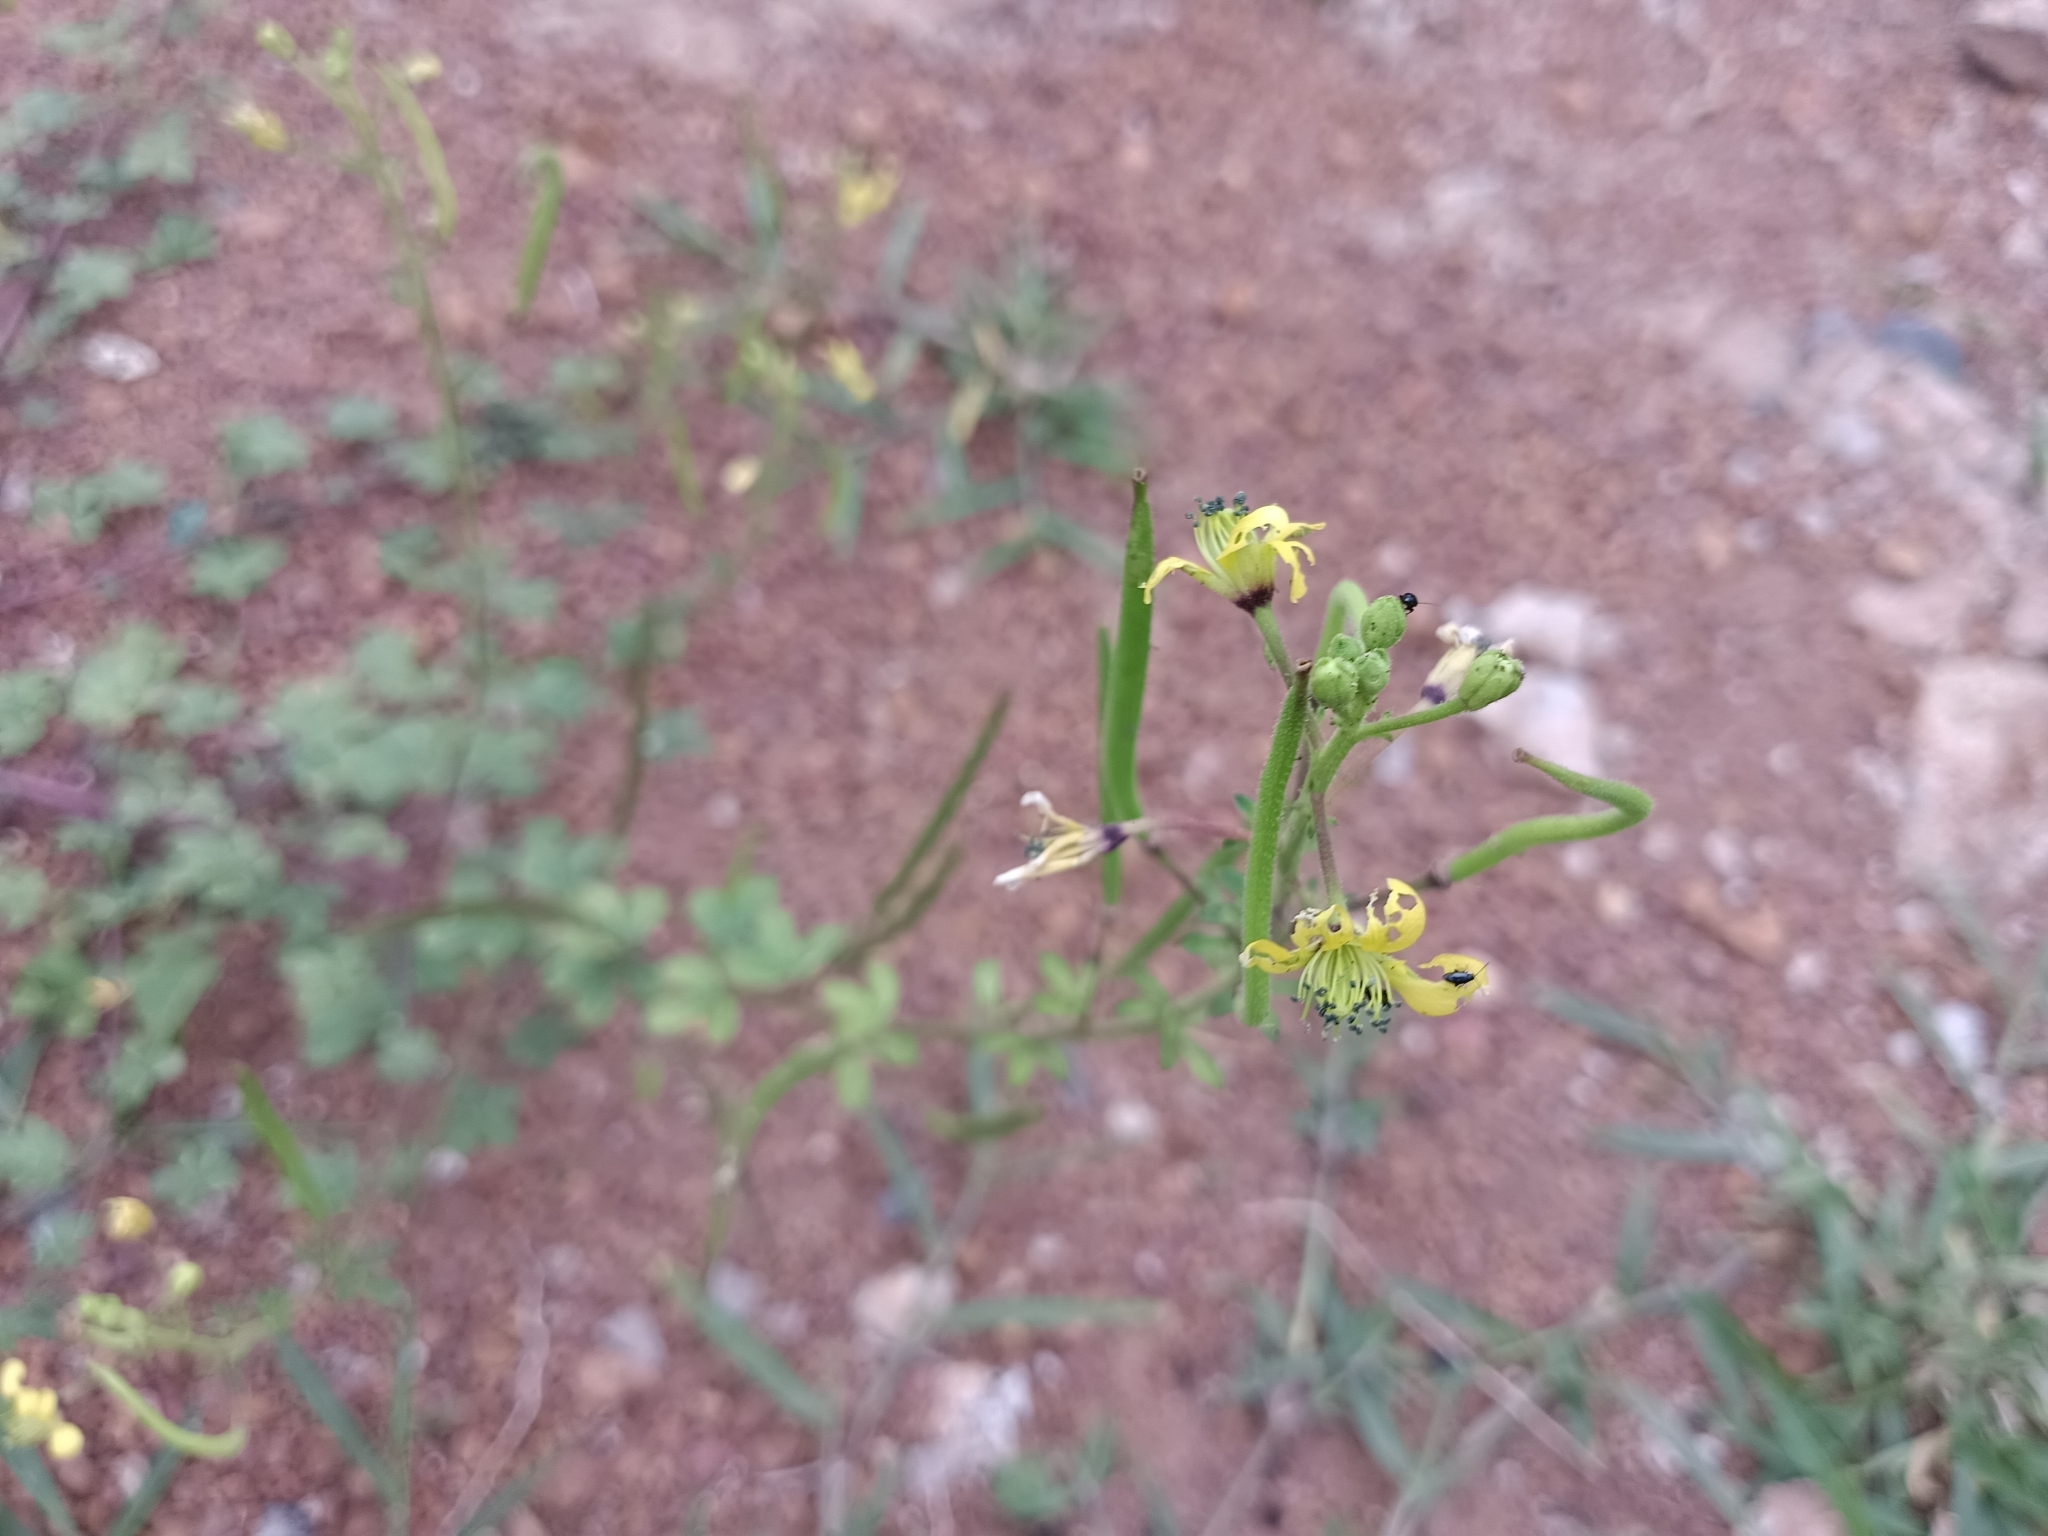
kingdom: Plantae
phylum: Tracheophyta
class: Magnoliopsida
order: Brassicales
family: Cleomaceae
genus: Arivela
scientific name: Arivela viscosa
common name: Asian spiderflower
